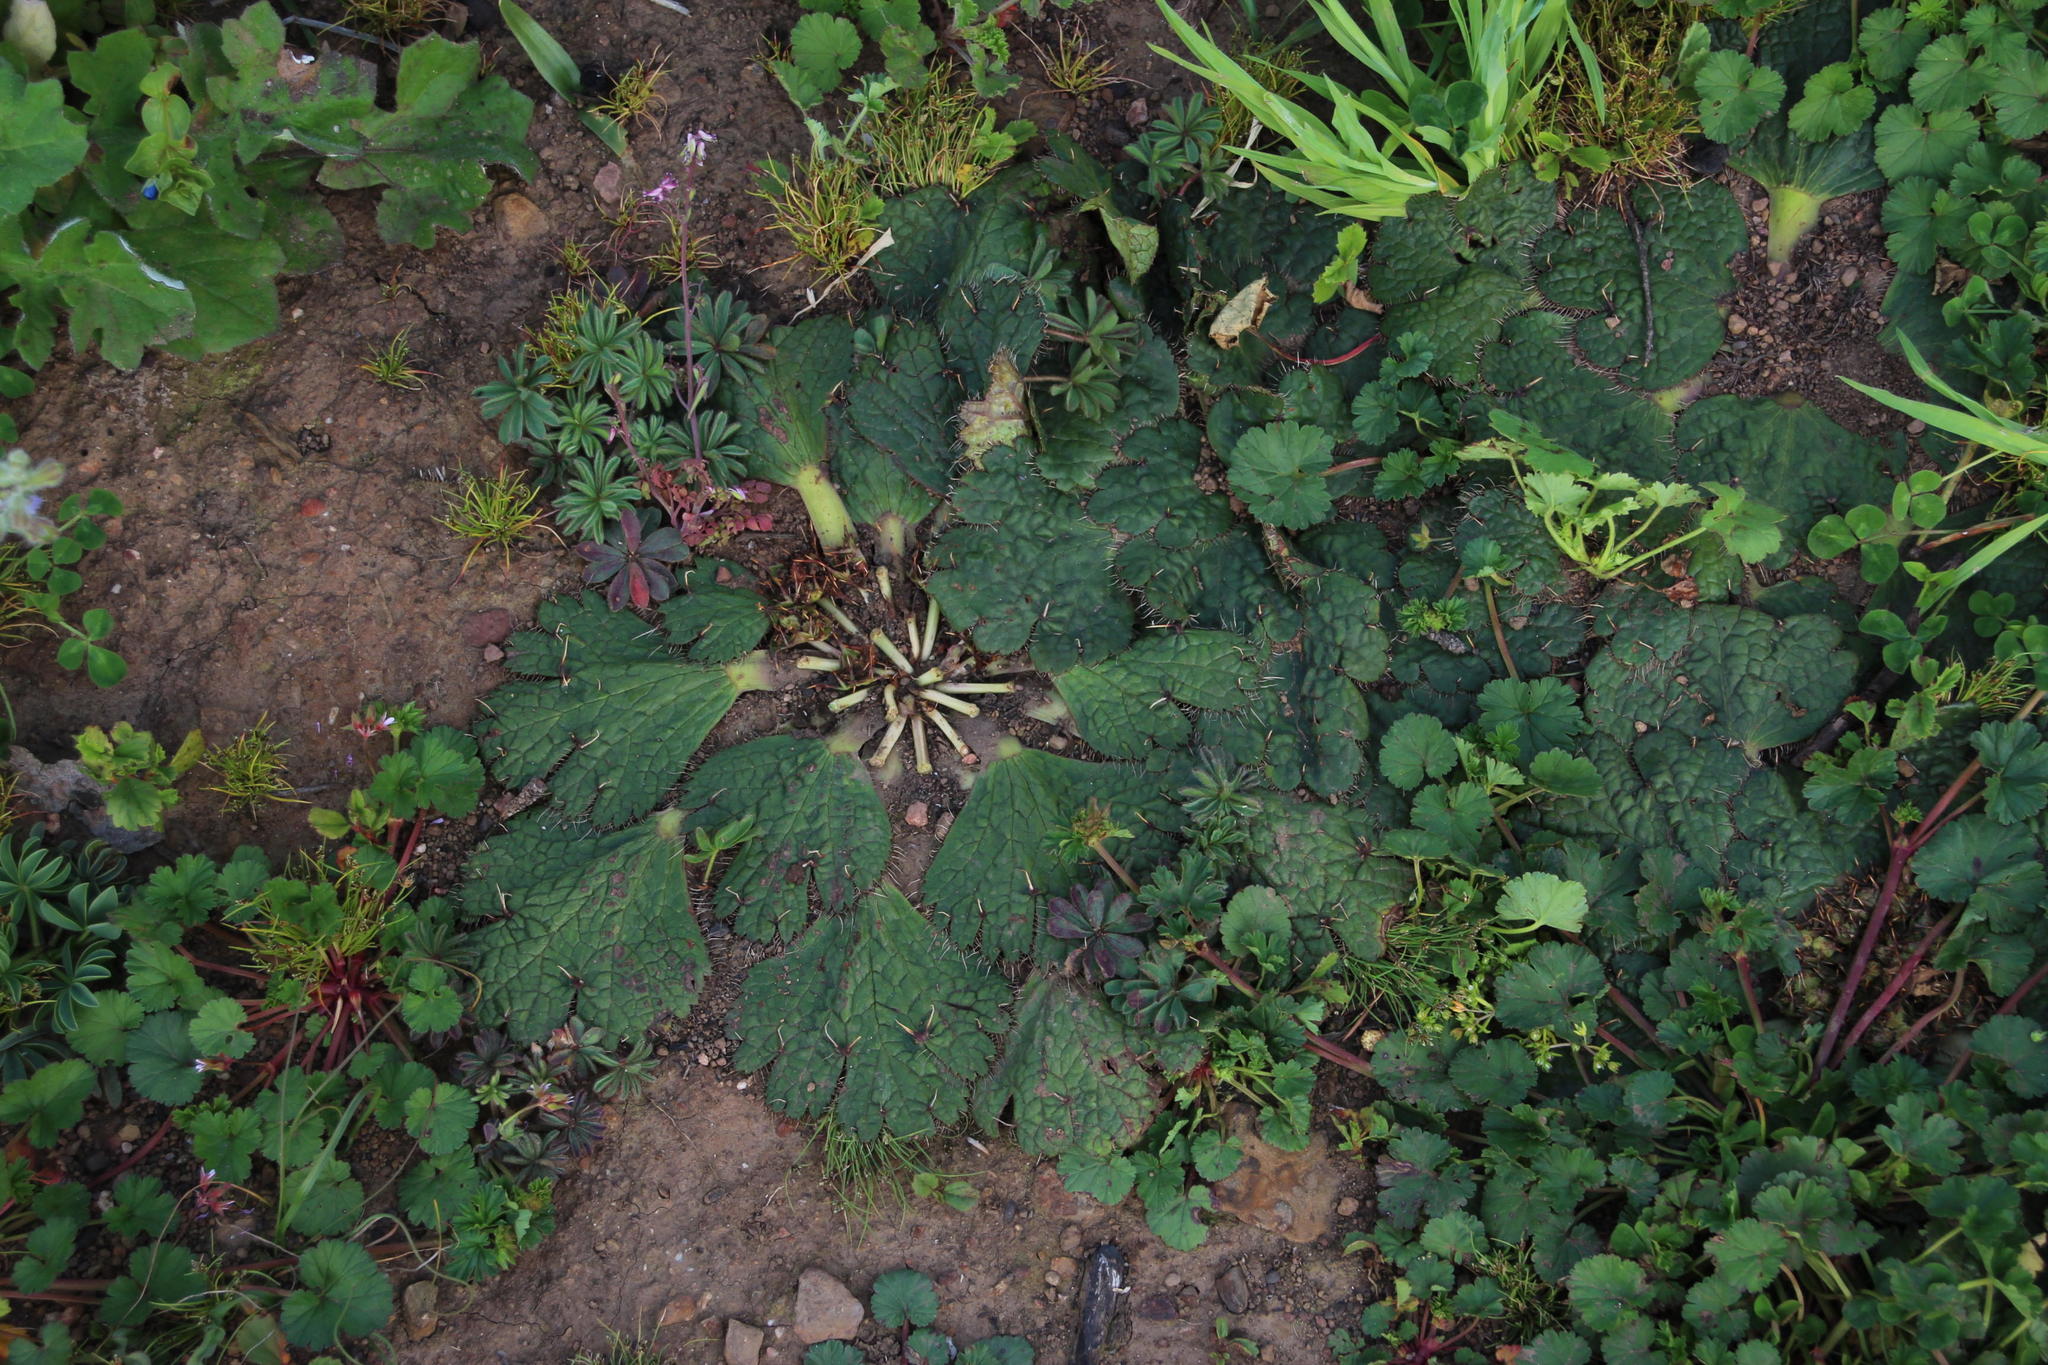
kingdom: Plantae
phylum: Tracheophyta
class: Magnoliopsida
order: Apiales
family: Apiaceae
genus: Arctopus
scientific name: Arctopus echinatus
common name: Platdoring
